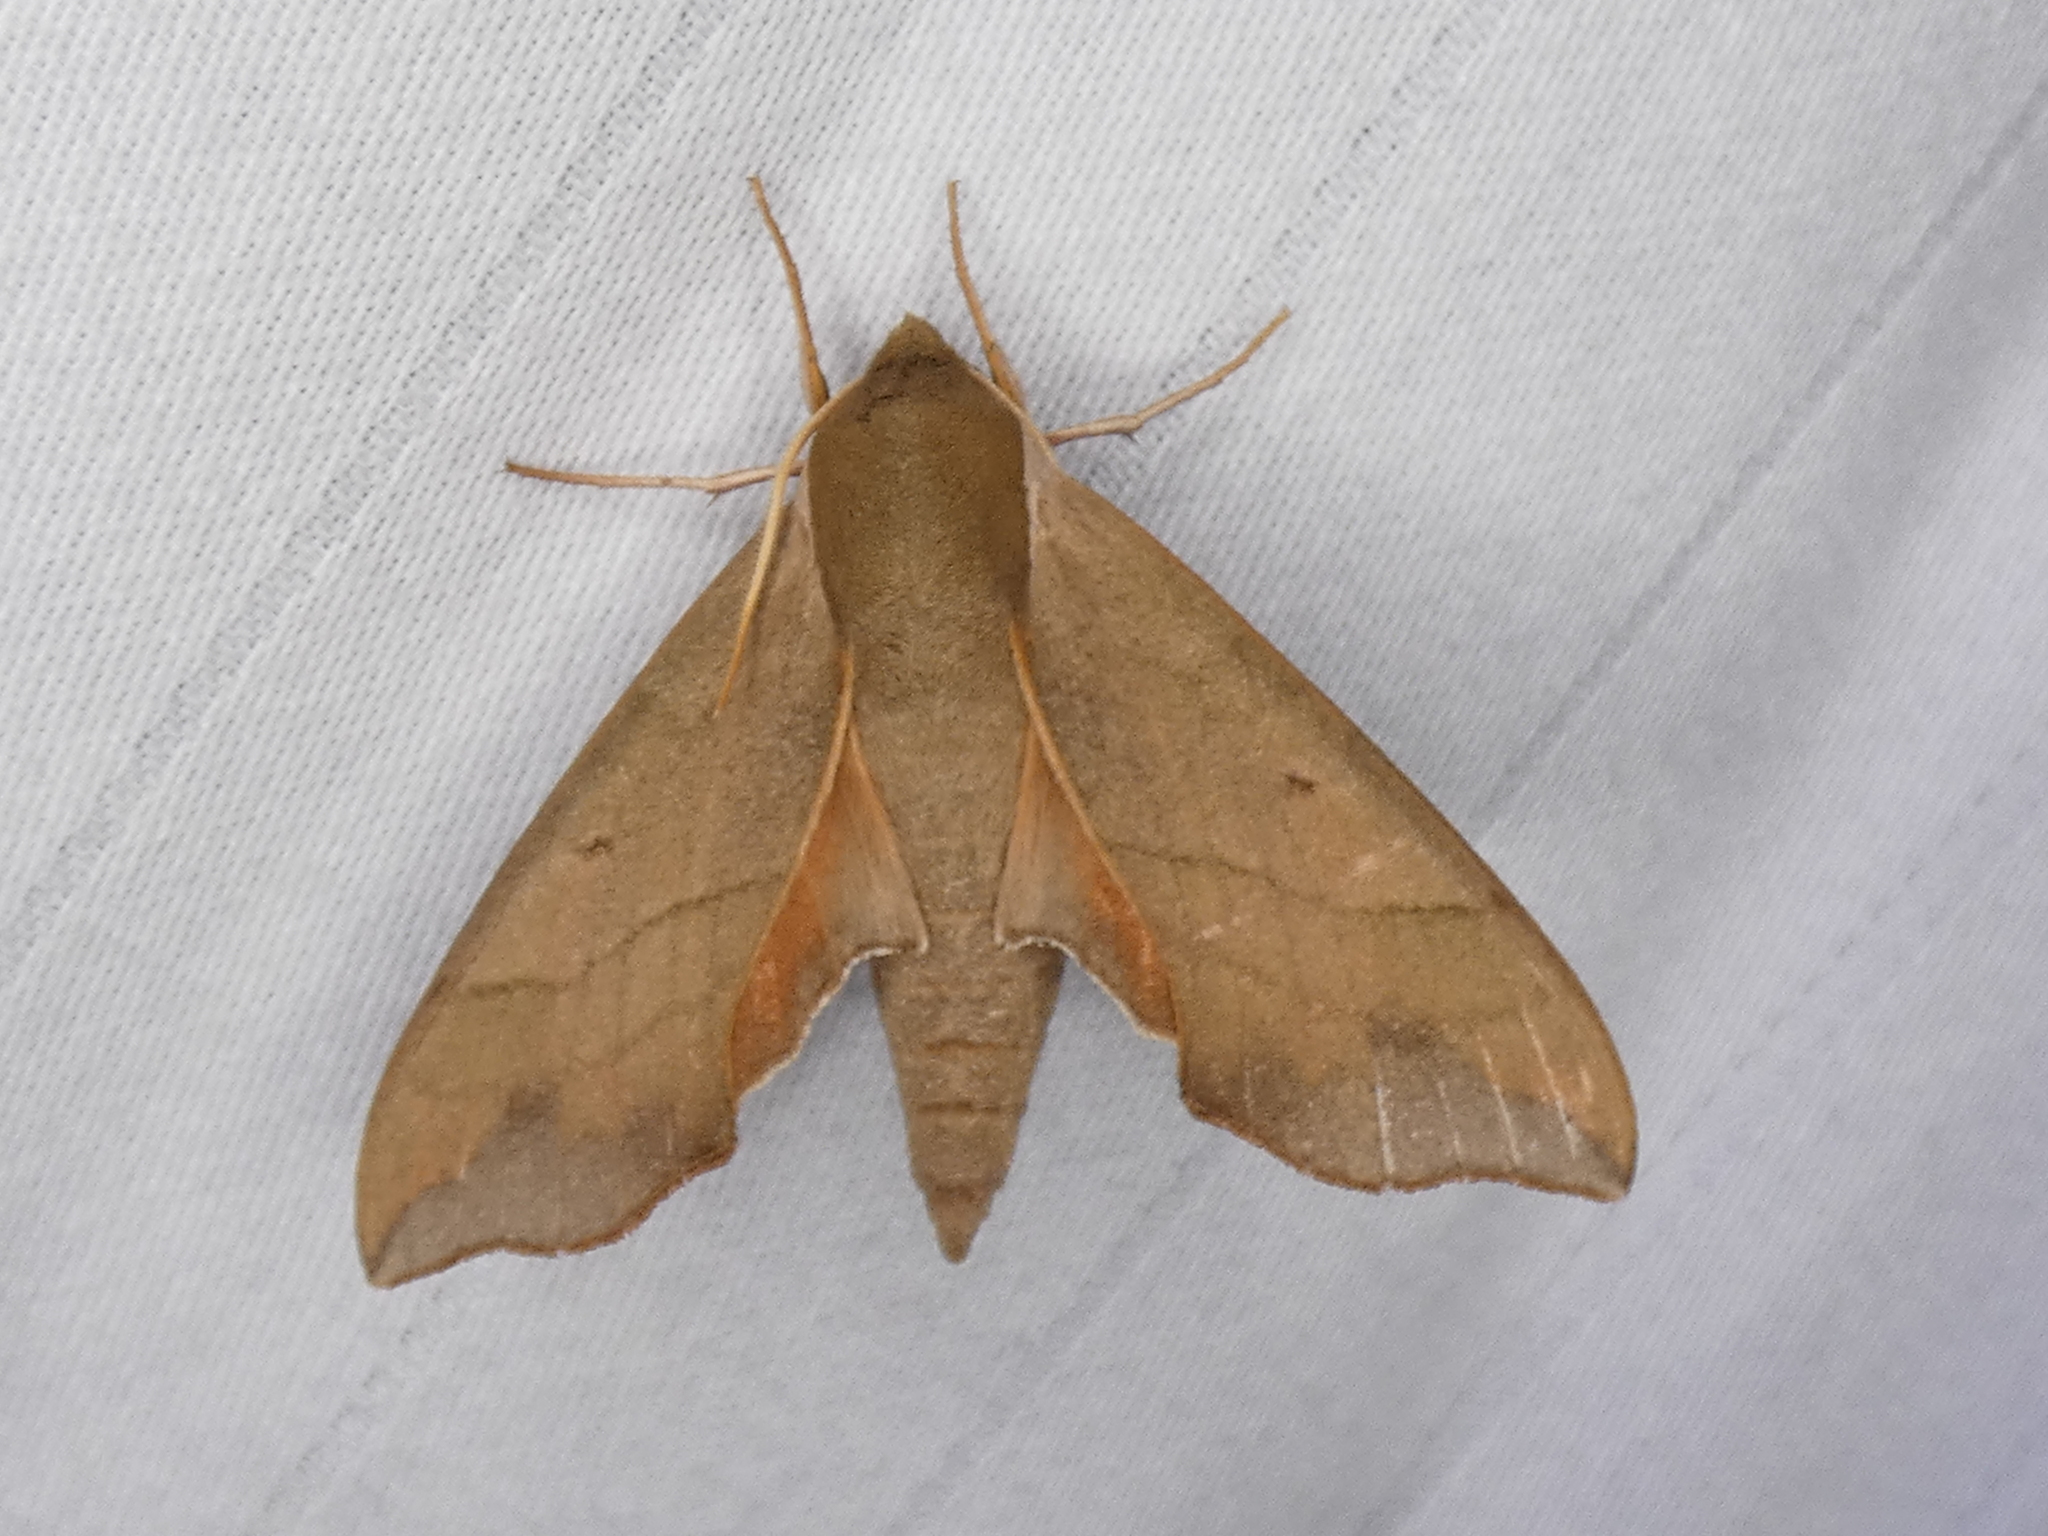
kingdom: Animalia
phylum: Arthropoda
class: Insecta
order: Lepidoptera
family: Sphingidae
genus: Darapsa
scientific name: Darapsa myron
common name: Hog sphinx
